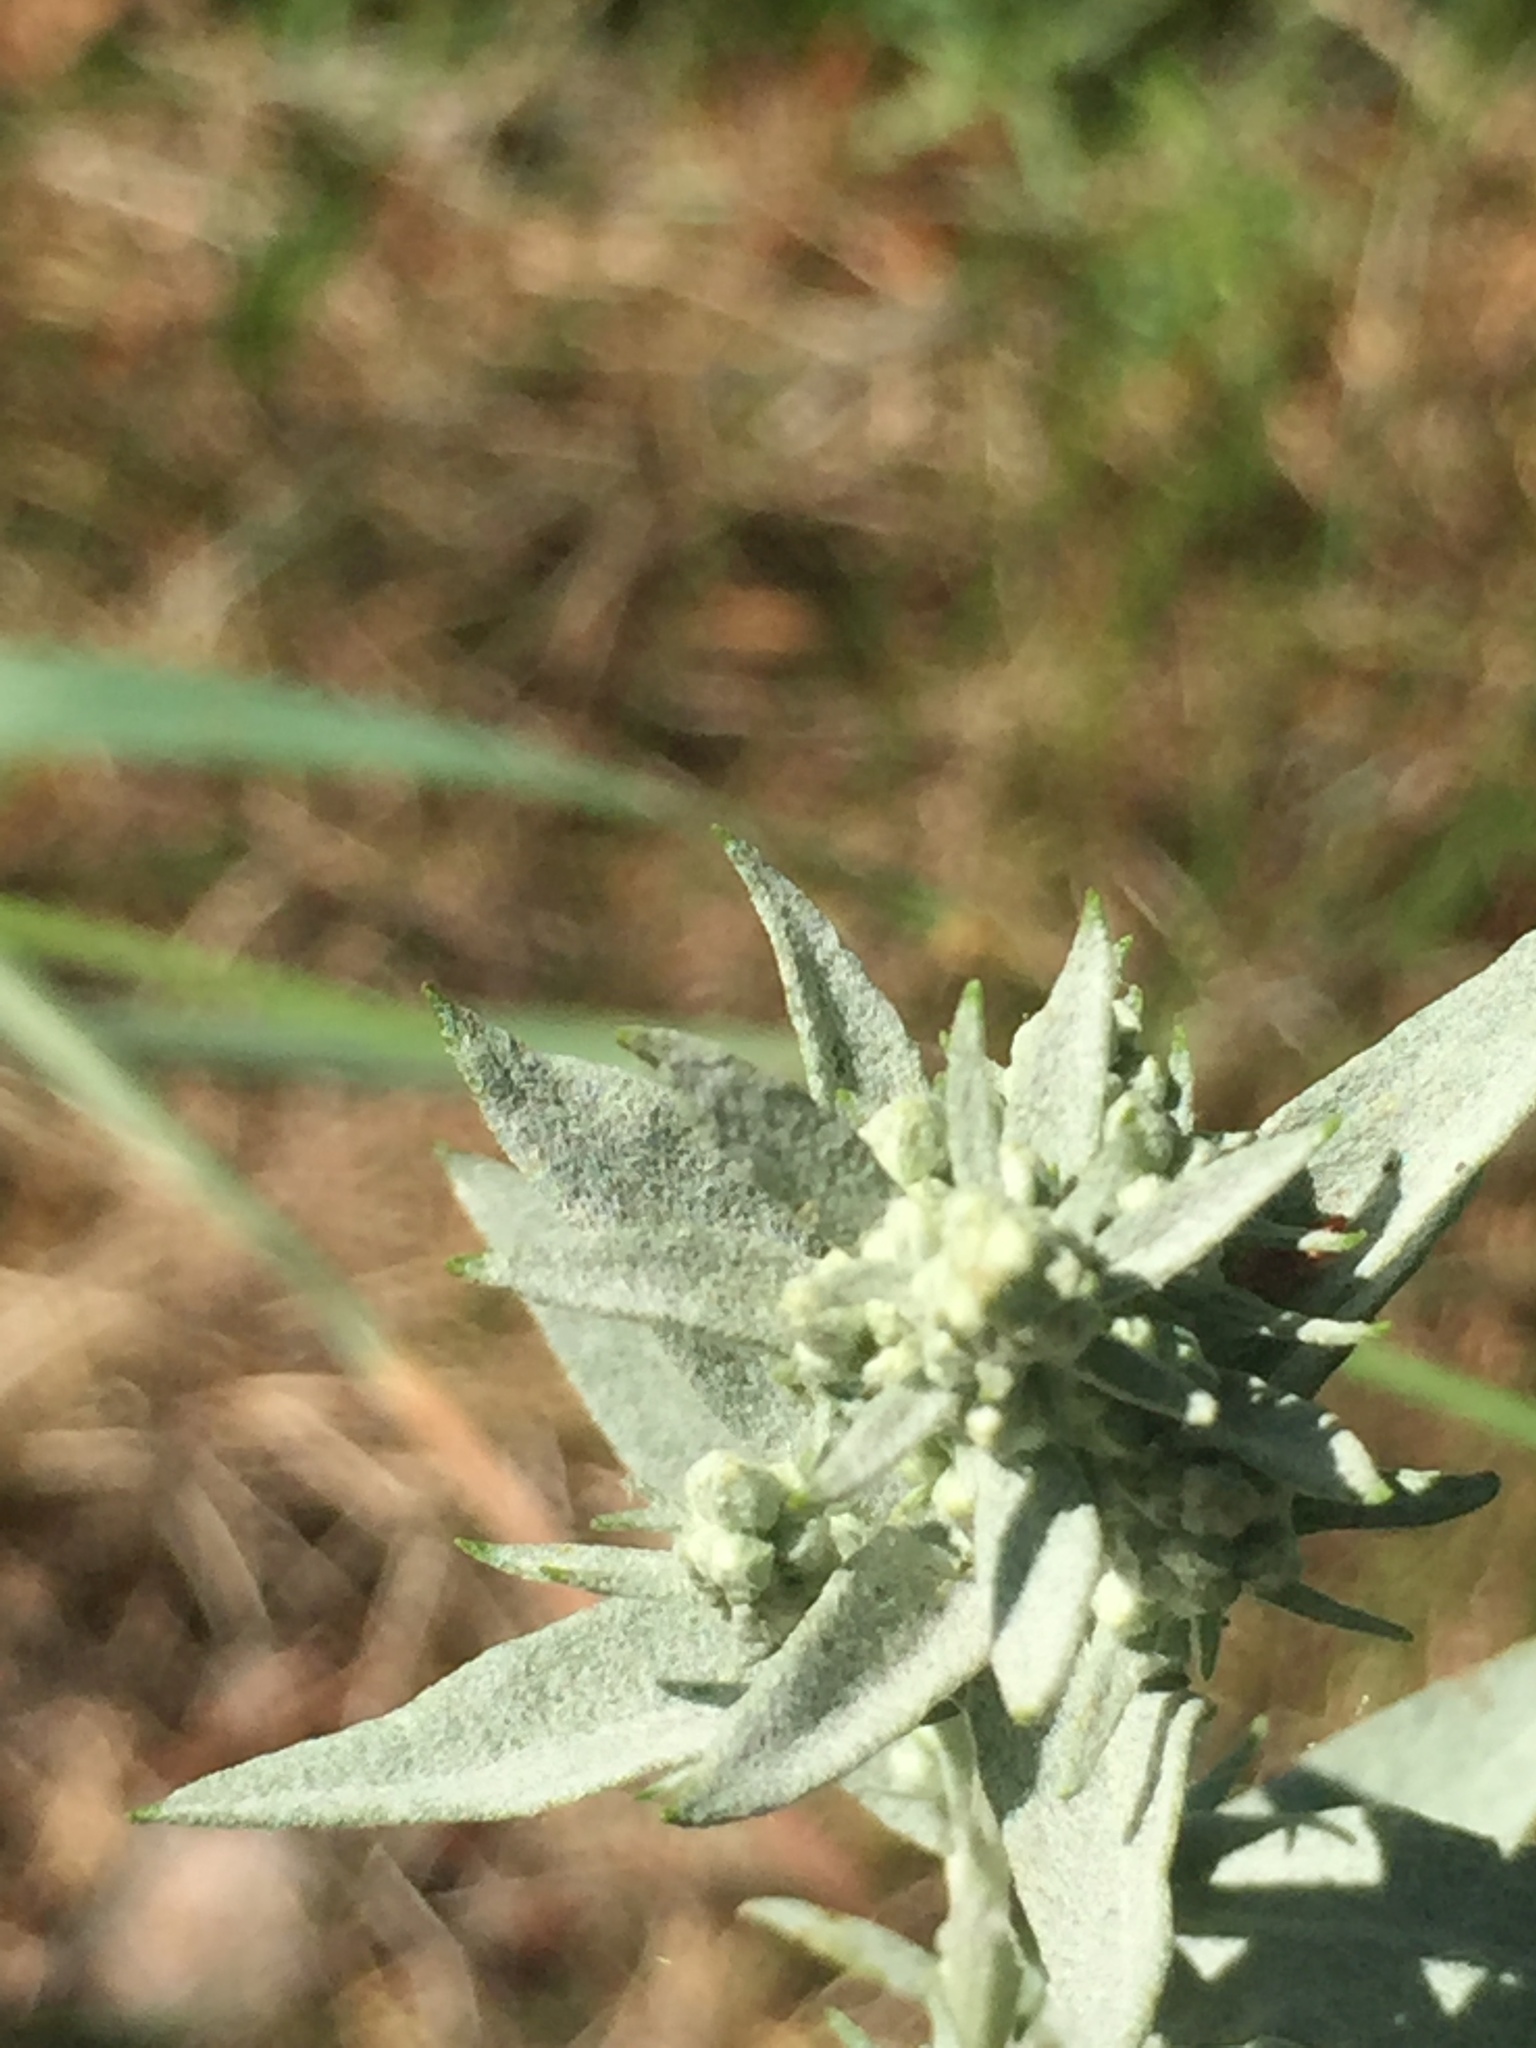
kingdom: Plantae
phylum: Tracheophyta
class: Magnoliopsida
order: Asterales
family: Asteraceae
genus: Artemisia
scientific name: Artemisia ludoviciana
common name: Western mugwort
